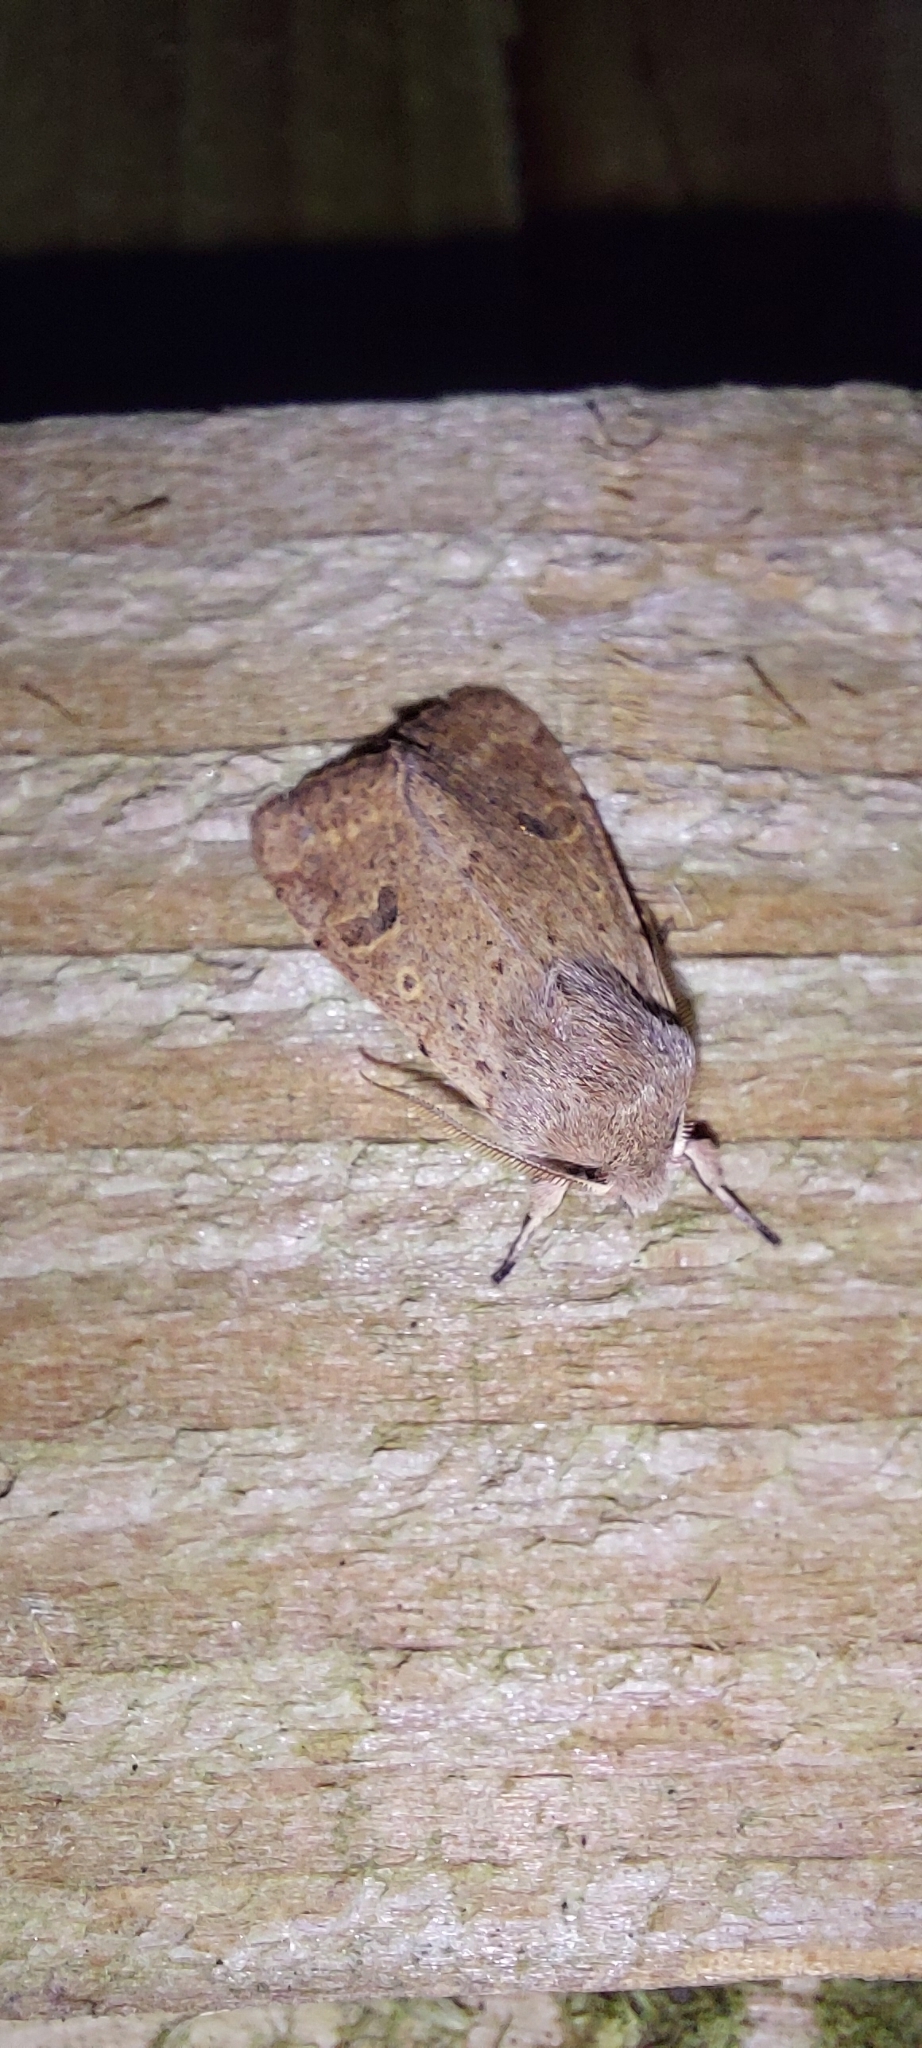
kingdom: Animalia
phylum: Arthropoda
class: Insecta
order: Lepidoptera
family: Noctuidae
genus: Orthosia
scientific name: Orthosia cruda
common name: Small quaker
